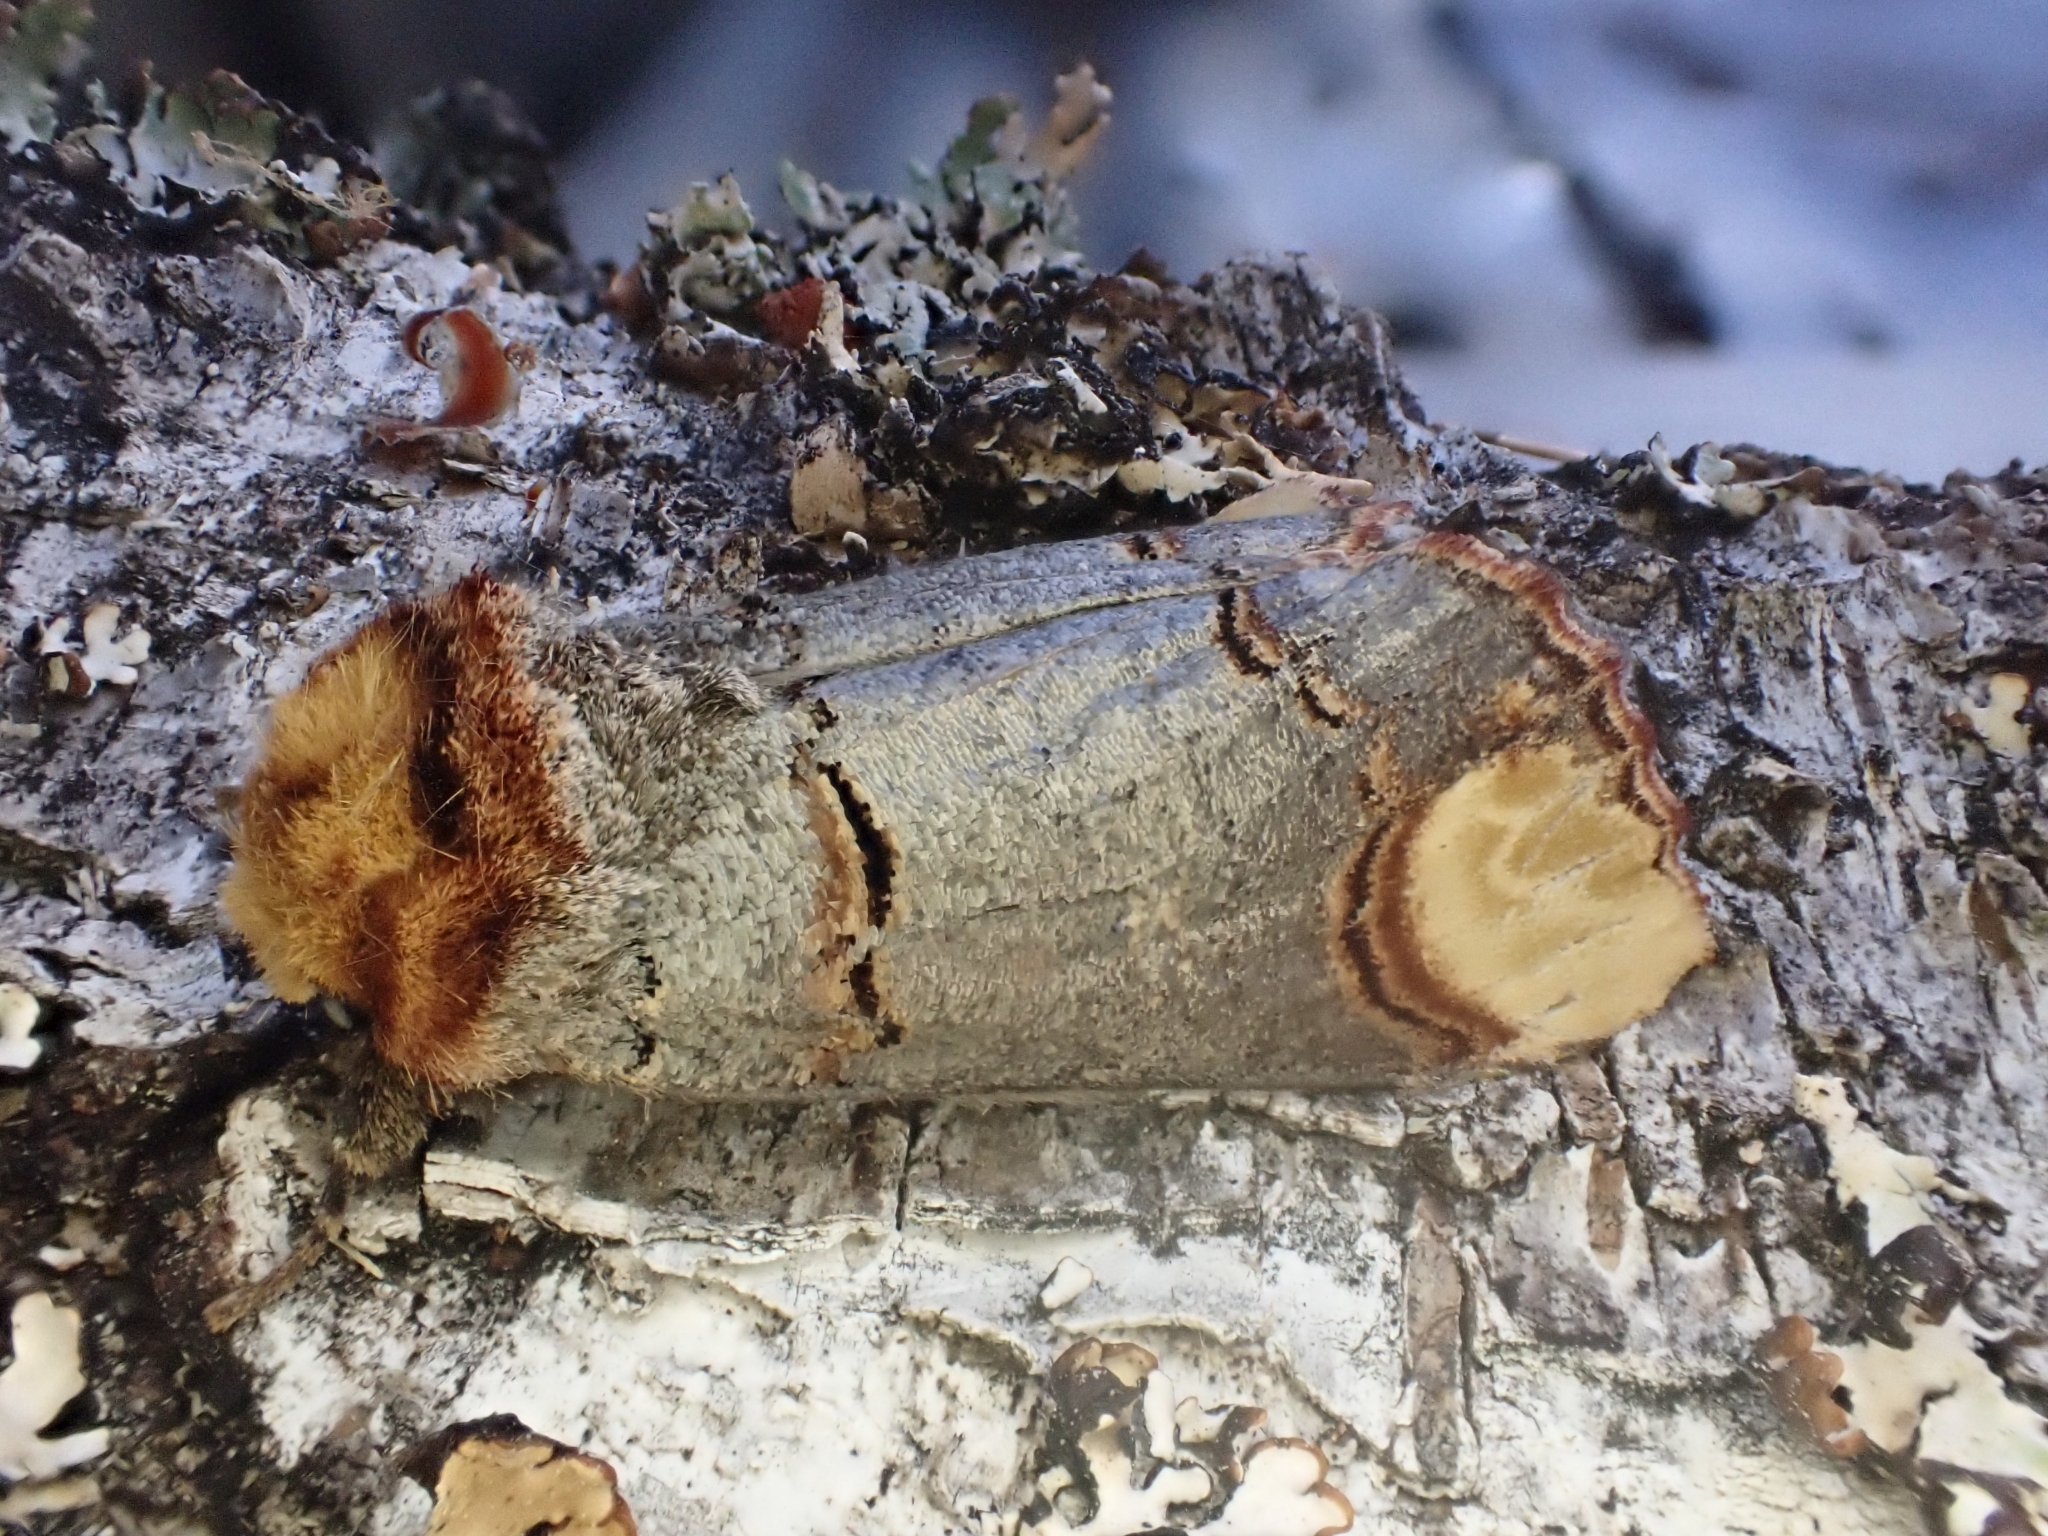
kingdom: Animalia
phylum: Arthropoda
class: Insecta
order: Lepidoptera
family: Notodontidae
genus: Phalera
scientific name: Phalera bucephala
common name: Buff-tip
